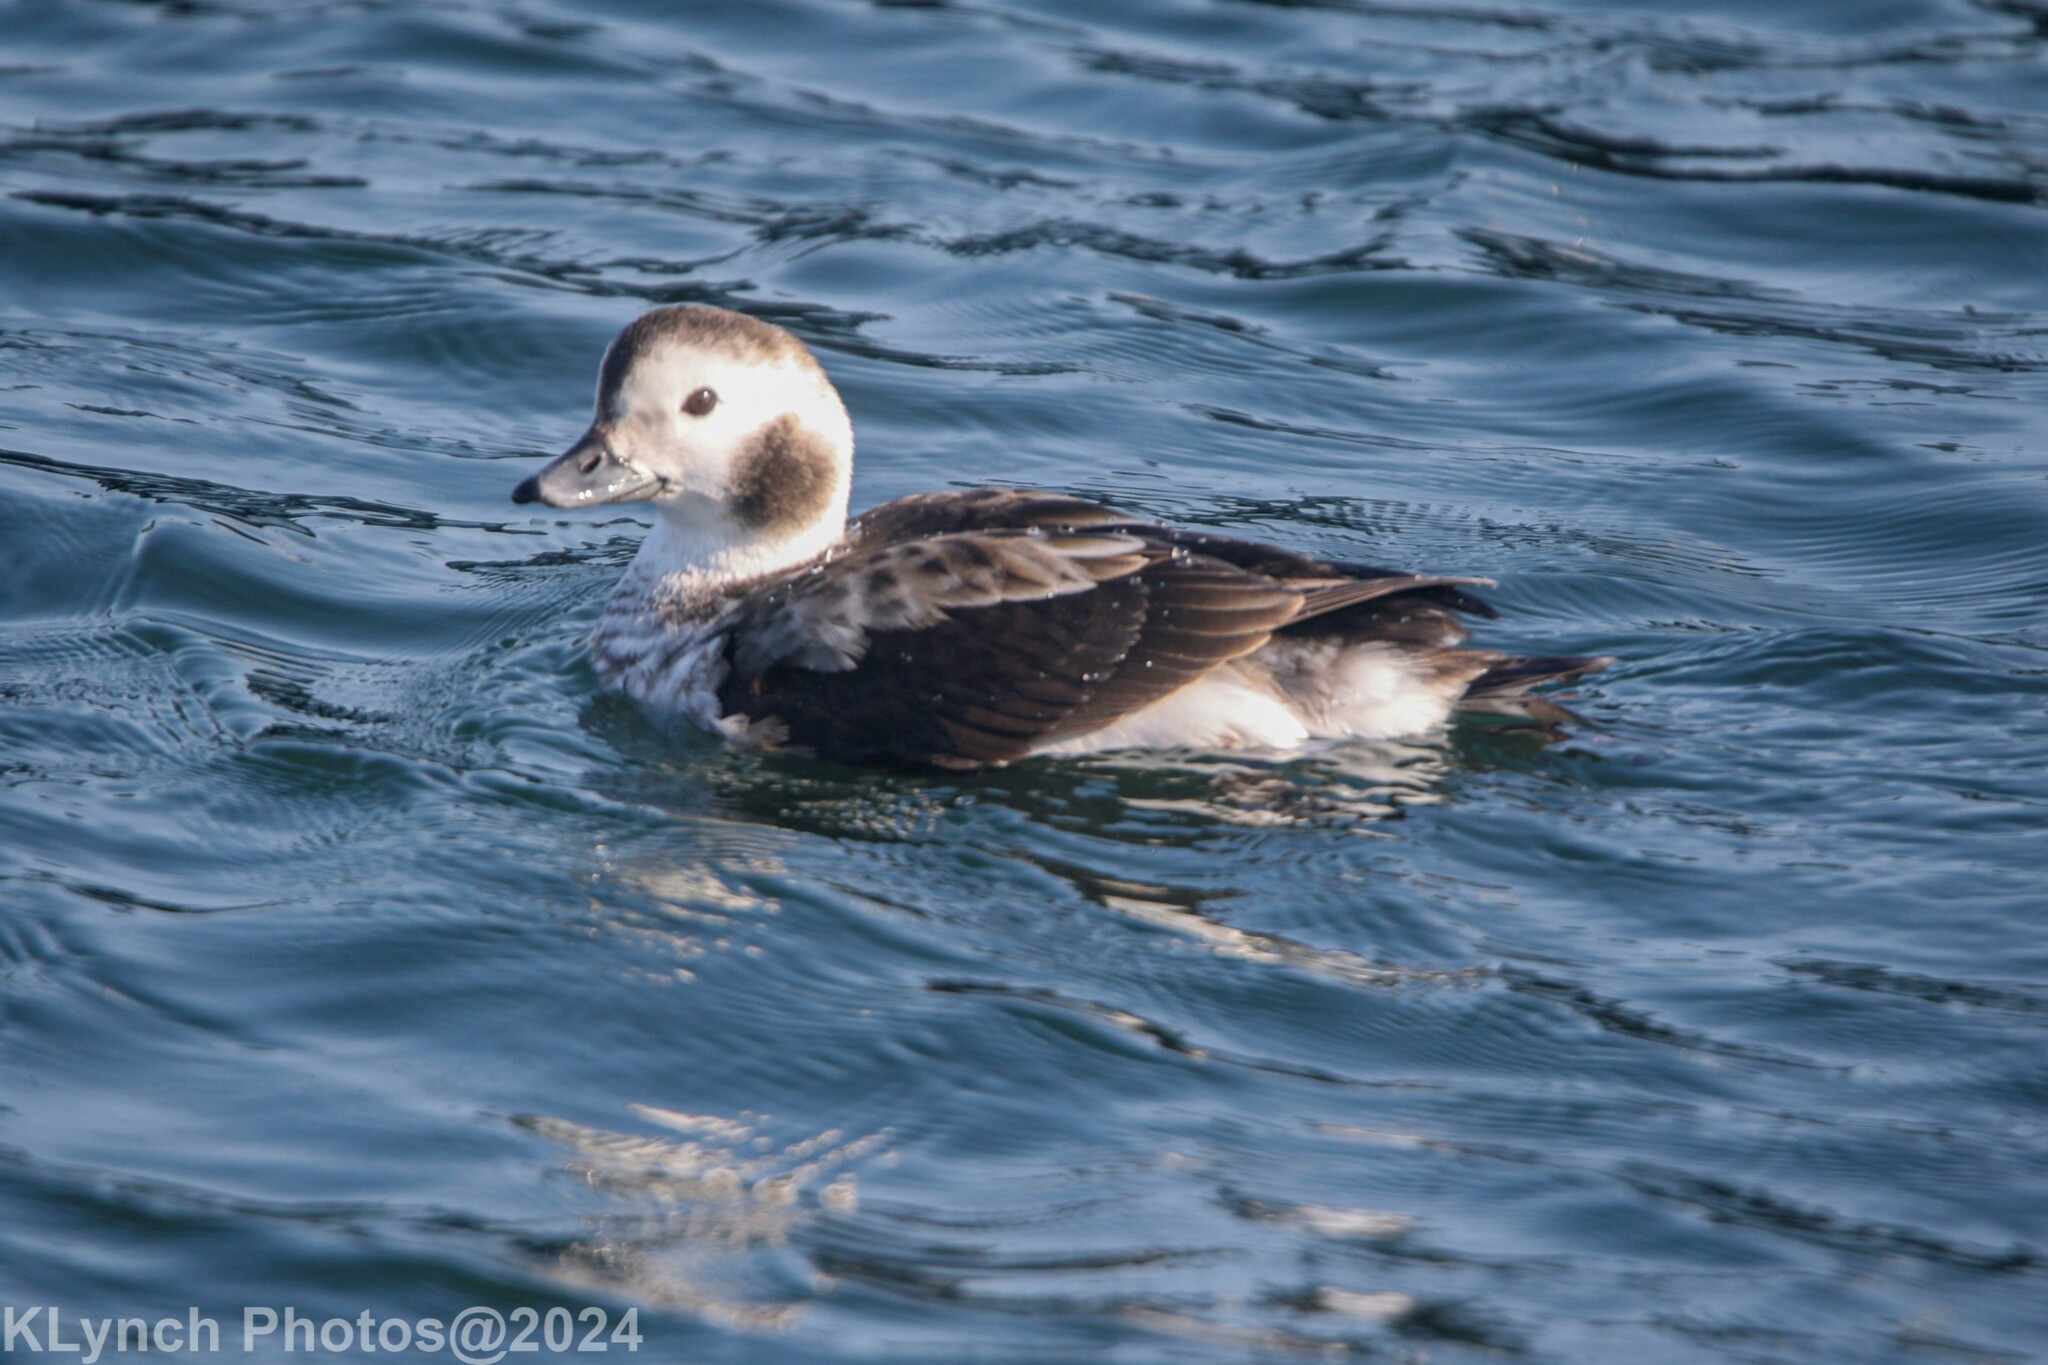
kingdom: Animalia
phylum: Chordata
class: Aves
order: Anseriformes
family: Anatidae
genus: Clangula
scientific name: Clangula hyemalis
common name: Long-tailed duck
